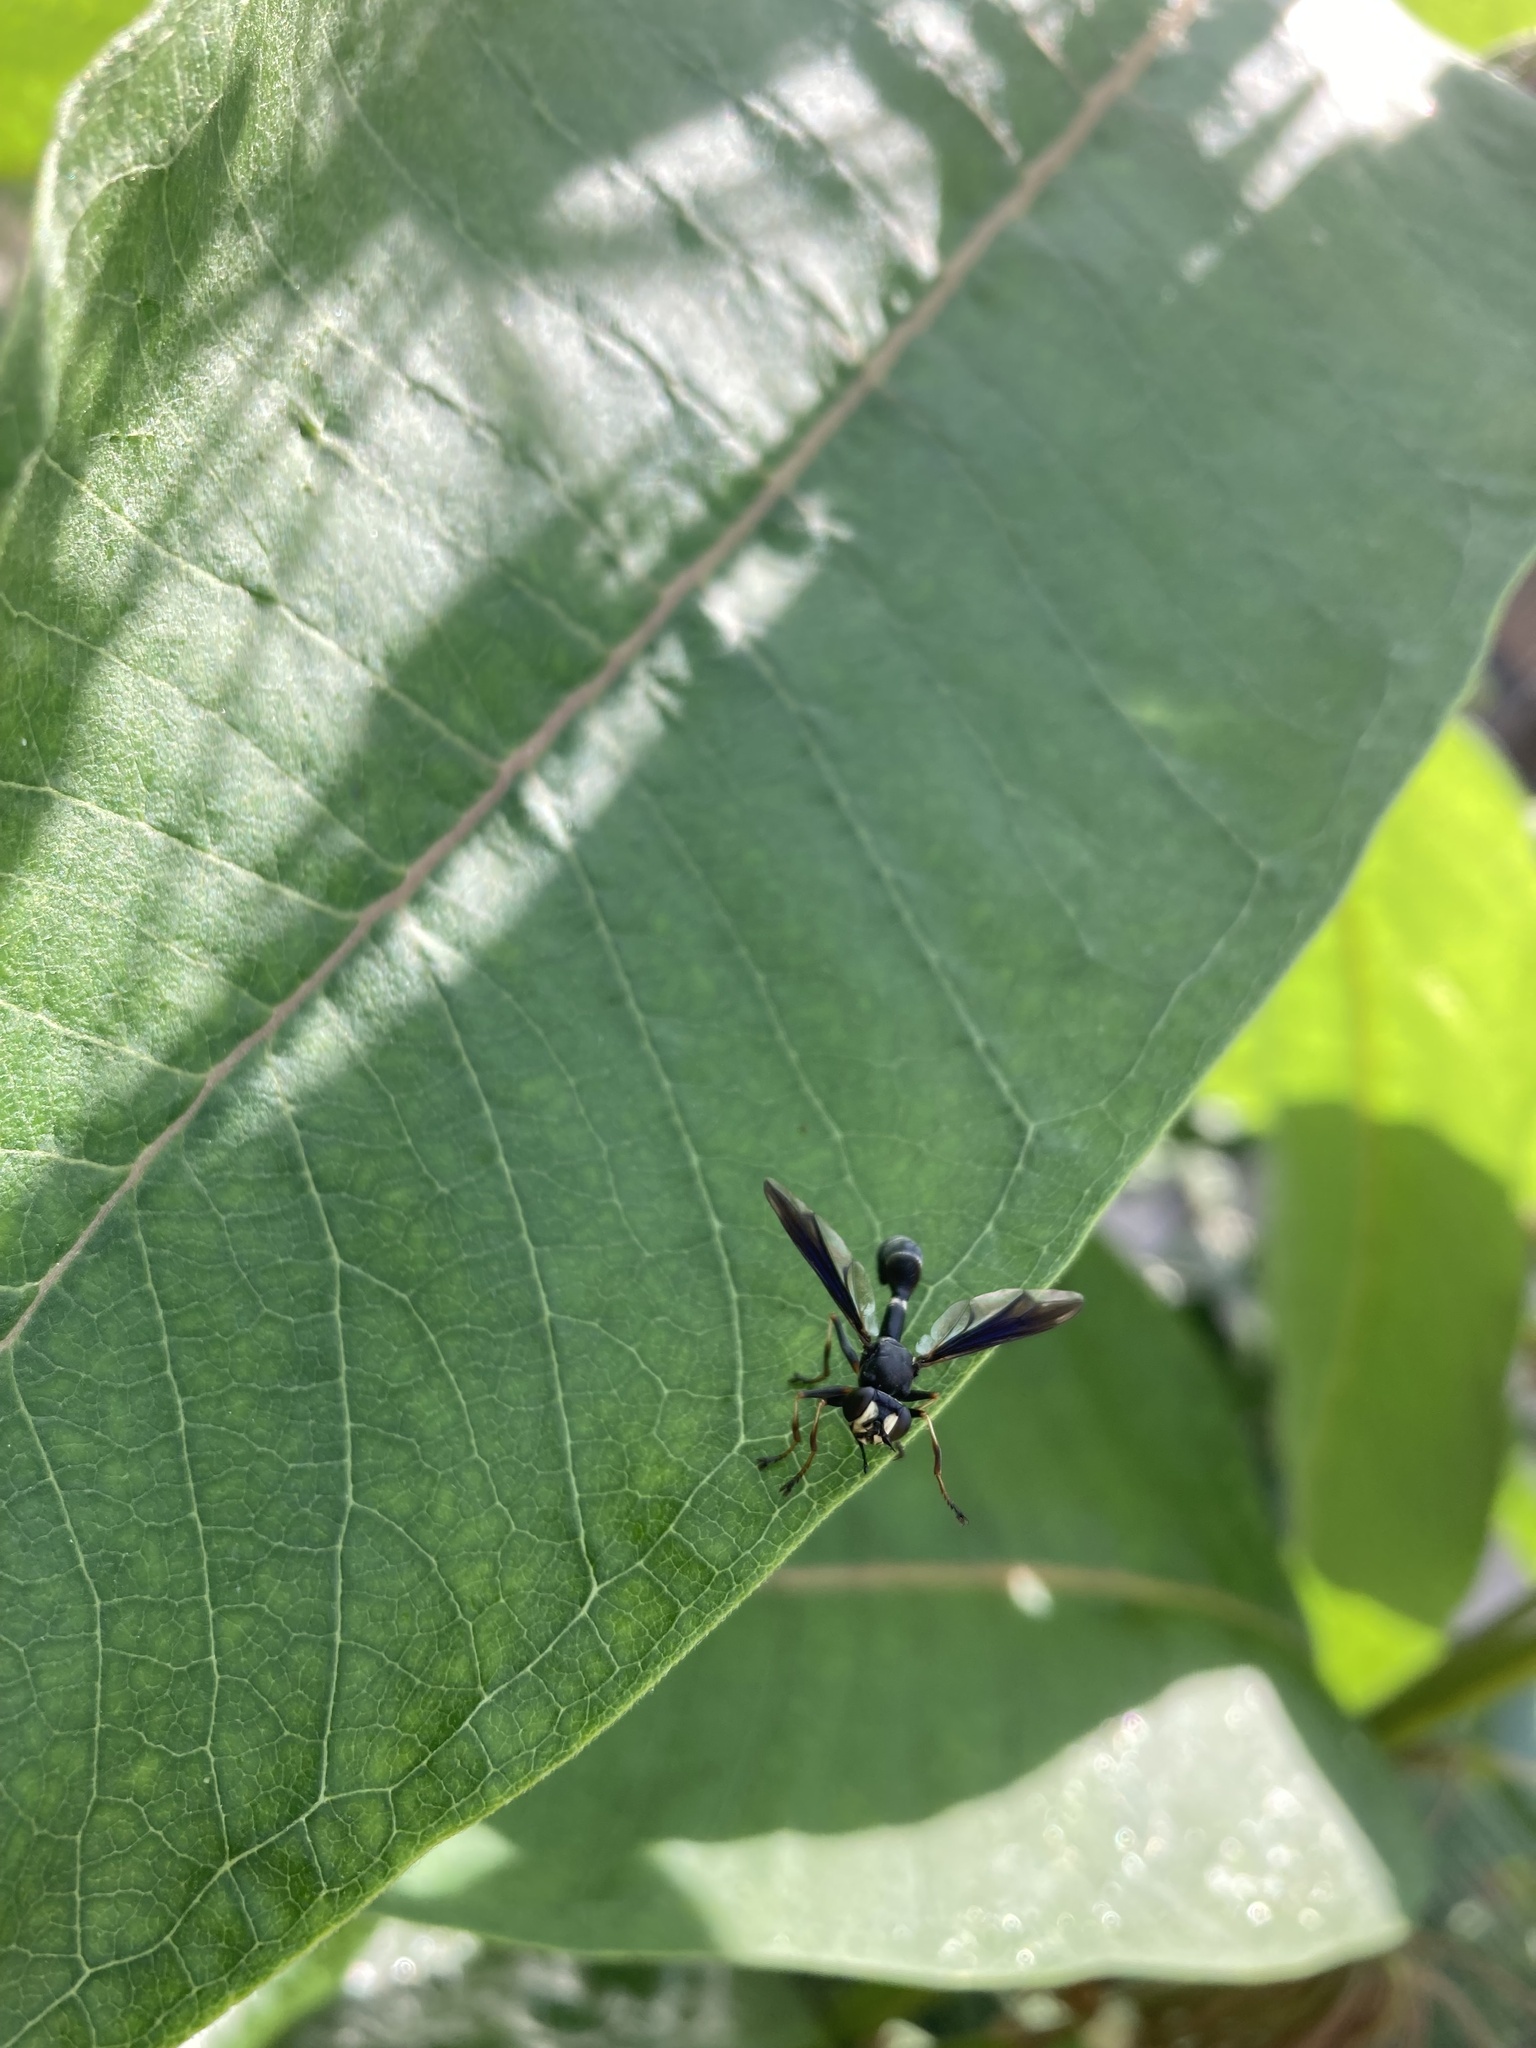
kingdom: Animalia
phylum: Arthropoda
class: Insecta
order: Diptera
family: Conopidae
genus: Physocephala
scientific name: Physocephala tibialis
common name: Common eastern physocephala
